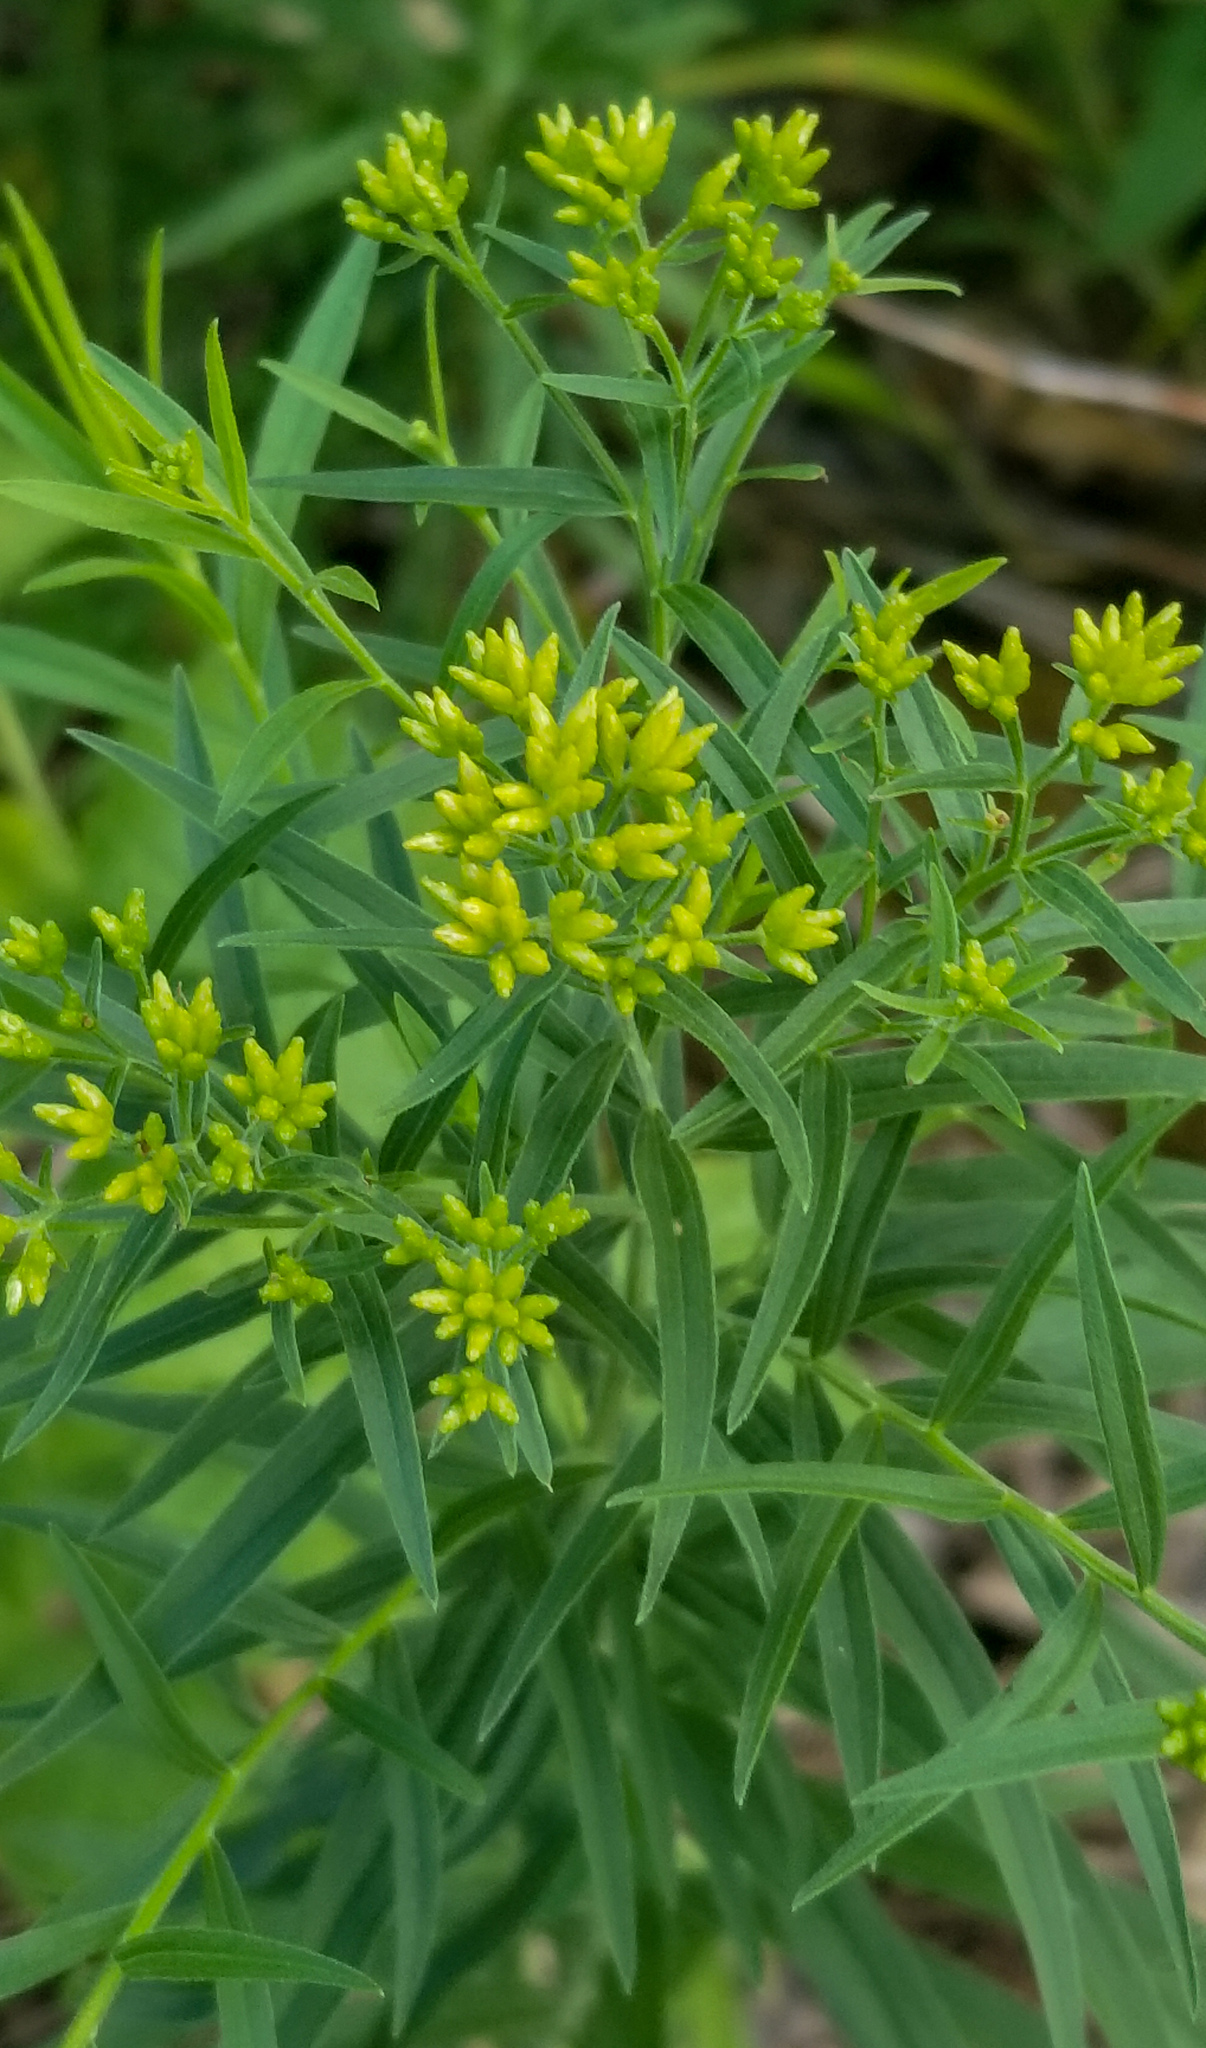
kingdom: Plantae
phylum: Tracheophyta
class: Magnoliopsida
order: Asterales
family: Asteraceae
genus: Euthamia
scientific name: Euthamia graminifolia
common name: Common goldentop
